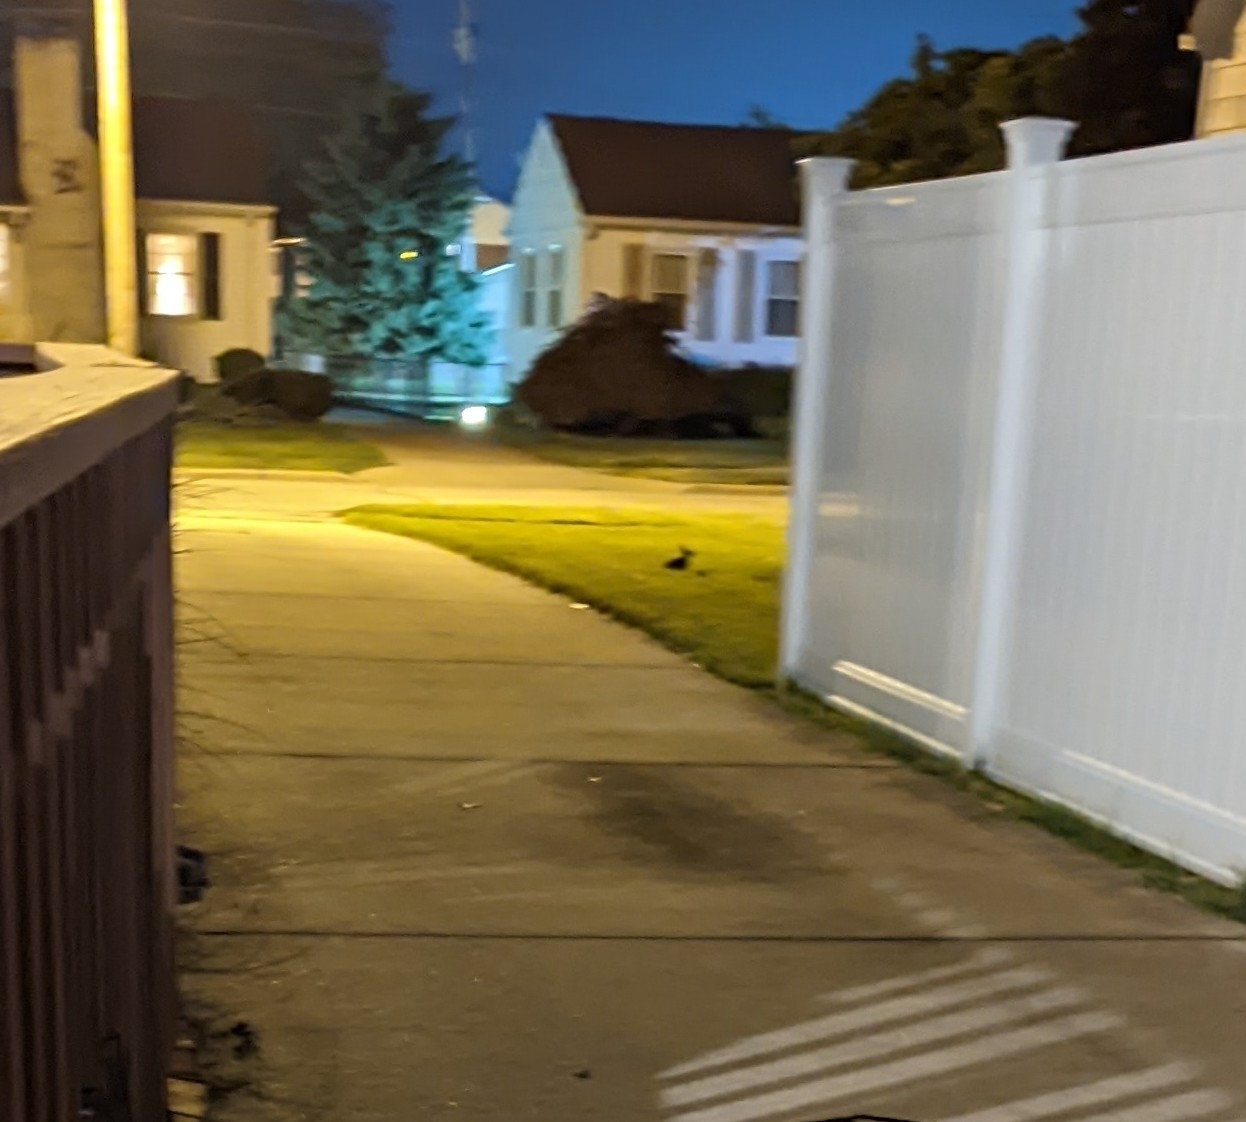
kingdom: Animalia
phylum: Chordata
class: Mammalia
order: Lagomorpha
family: Leporidae
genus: Sylvilagus
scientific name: Sylvilagus floridanus
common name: Eastern cottontail
